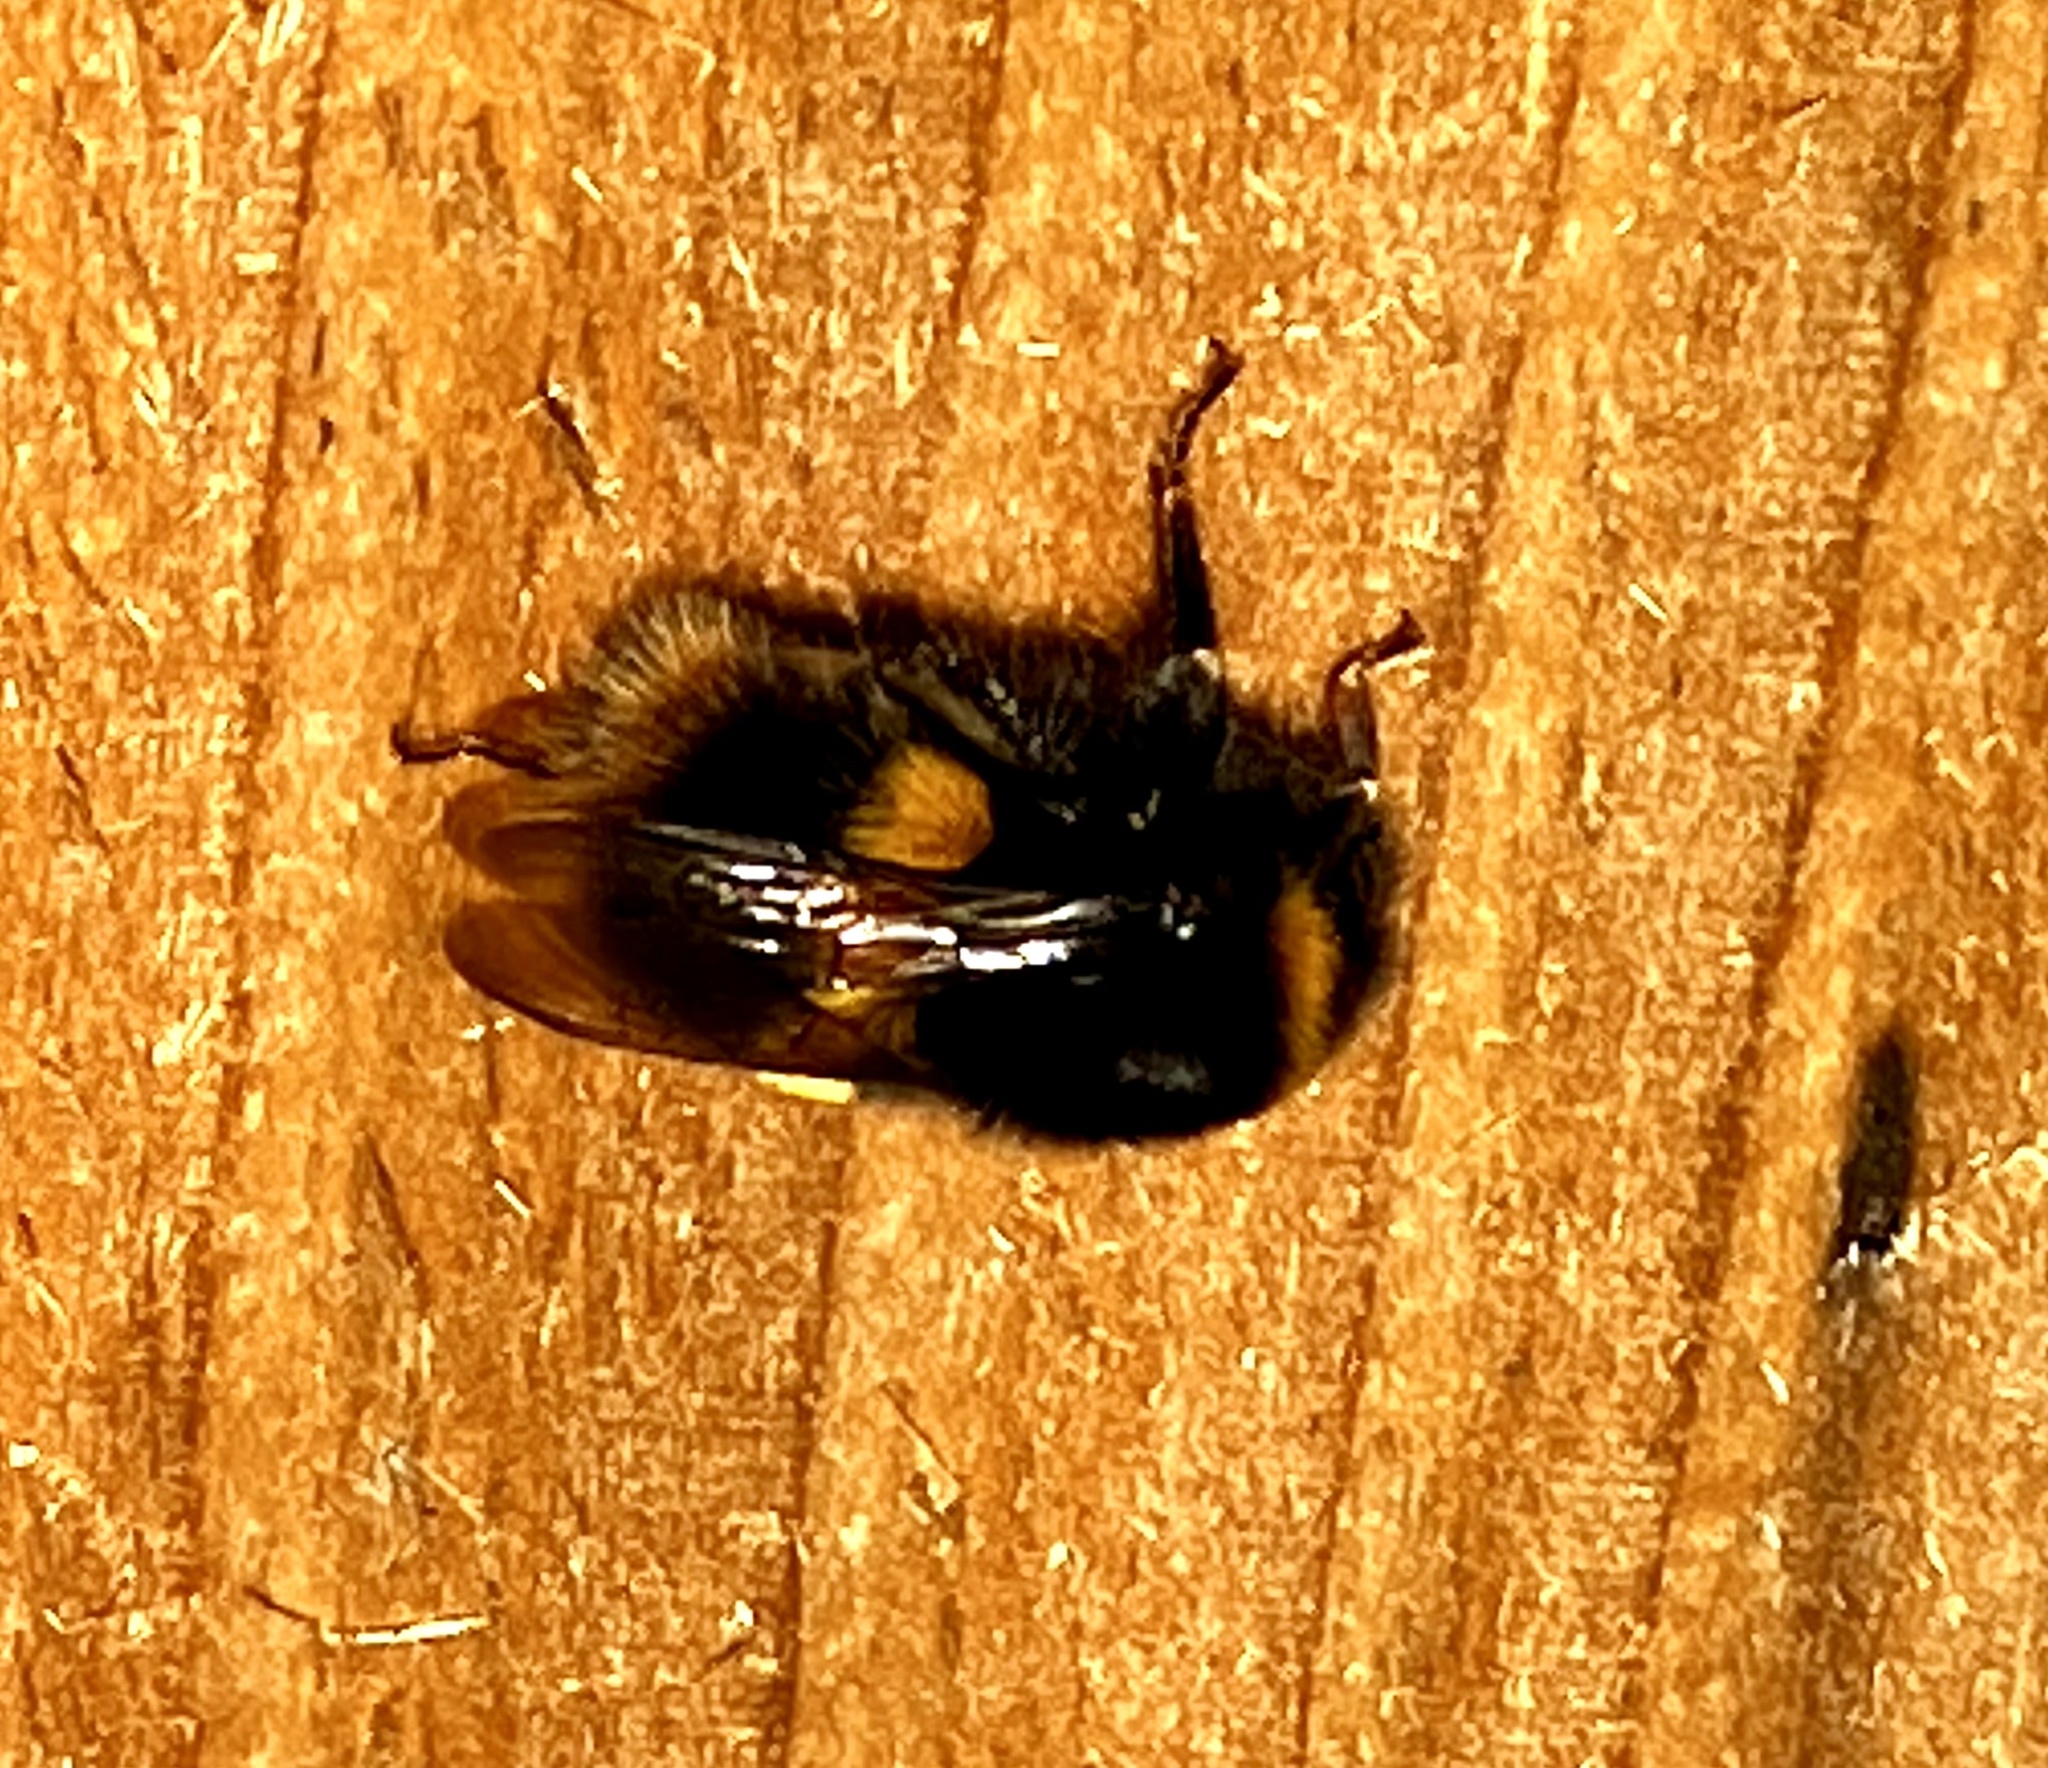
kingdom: Animalia
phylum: Arthropoda
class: Insecta
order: Hymenoptera
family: Apidae
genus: Bombus
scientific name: Bombus terrestris
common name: Buff-tailed bumblebee
